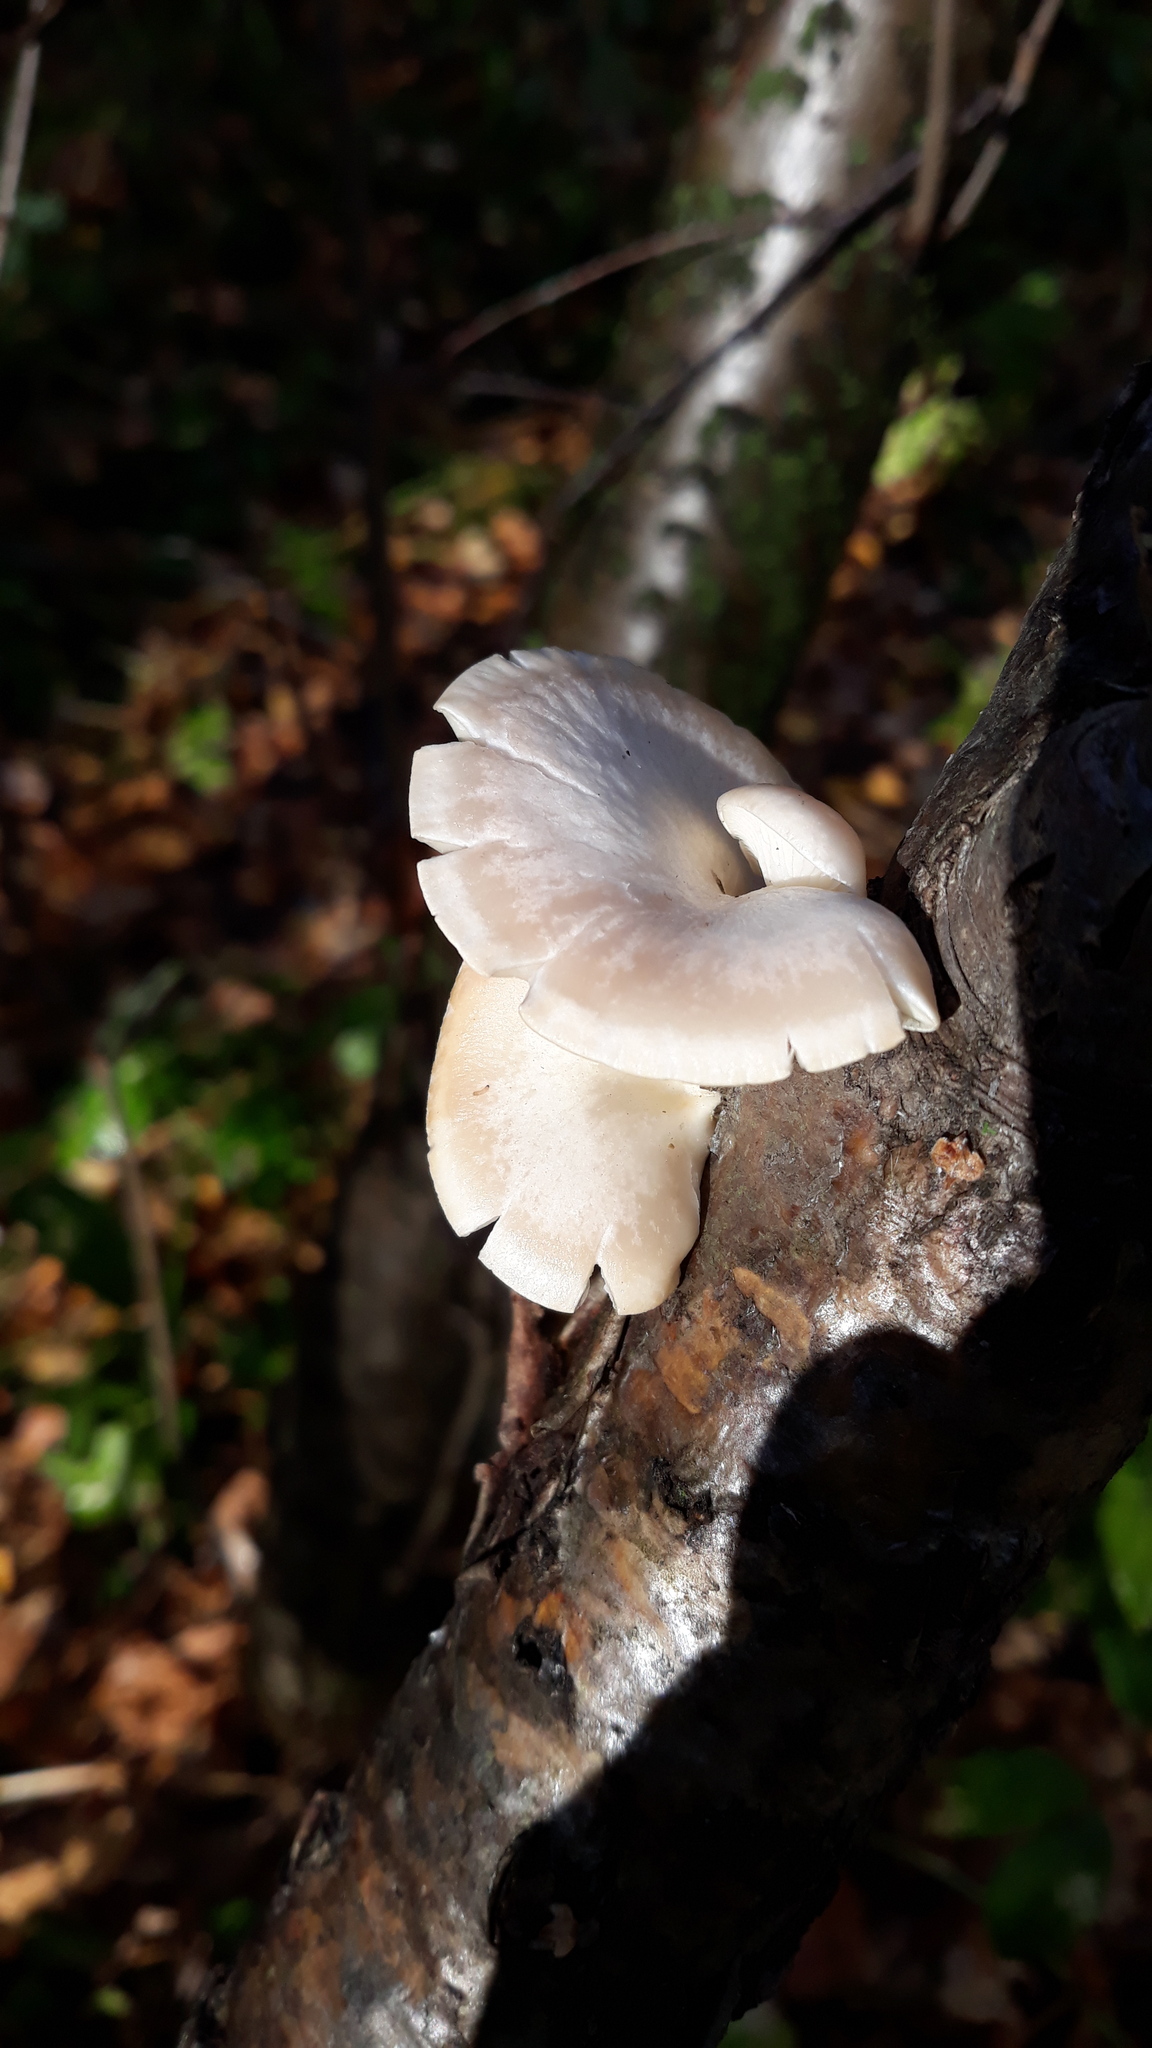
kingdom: Fungi
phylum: Basidiomycota
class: Agaricomycetes
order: Agaricales
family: Pleurotaceae
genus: Pleurotus
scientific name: Pleurotus pulmonarius
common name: Pale oyster
